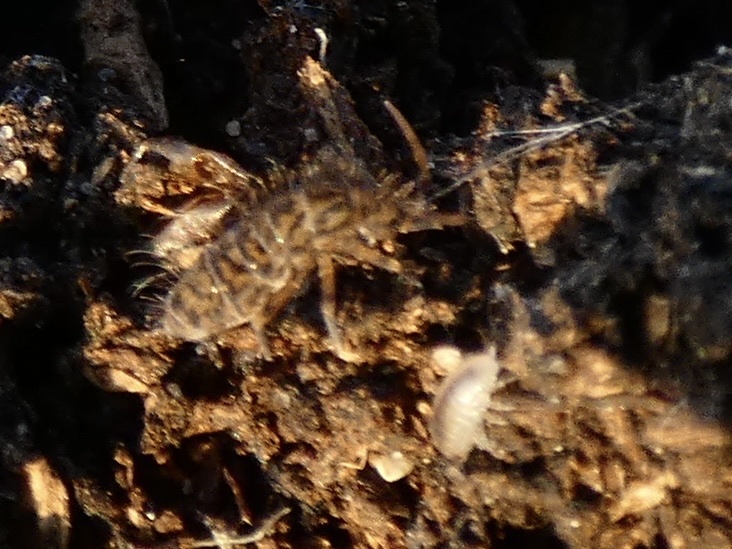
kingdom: Animalia
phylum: Arthropoda
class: Collembola
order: Entomobryomorpha
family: Orchesellidae
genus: Orchesella
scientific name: Orchesella villosa
